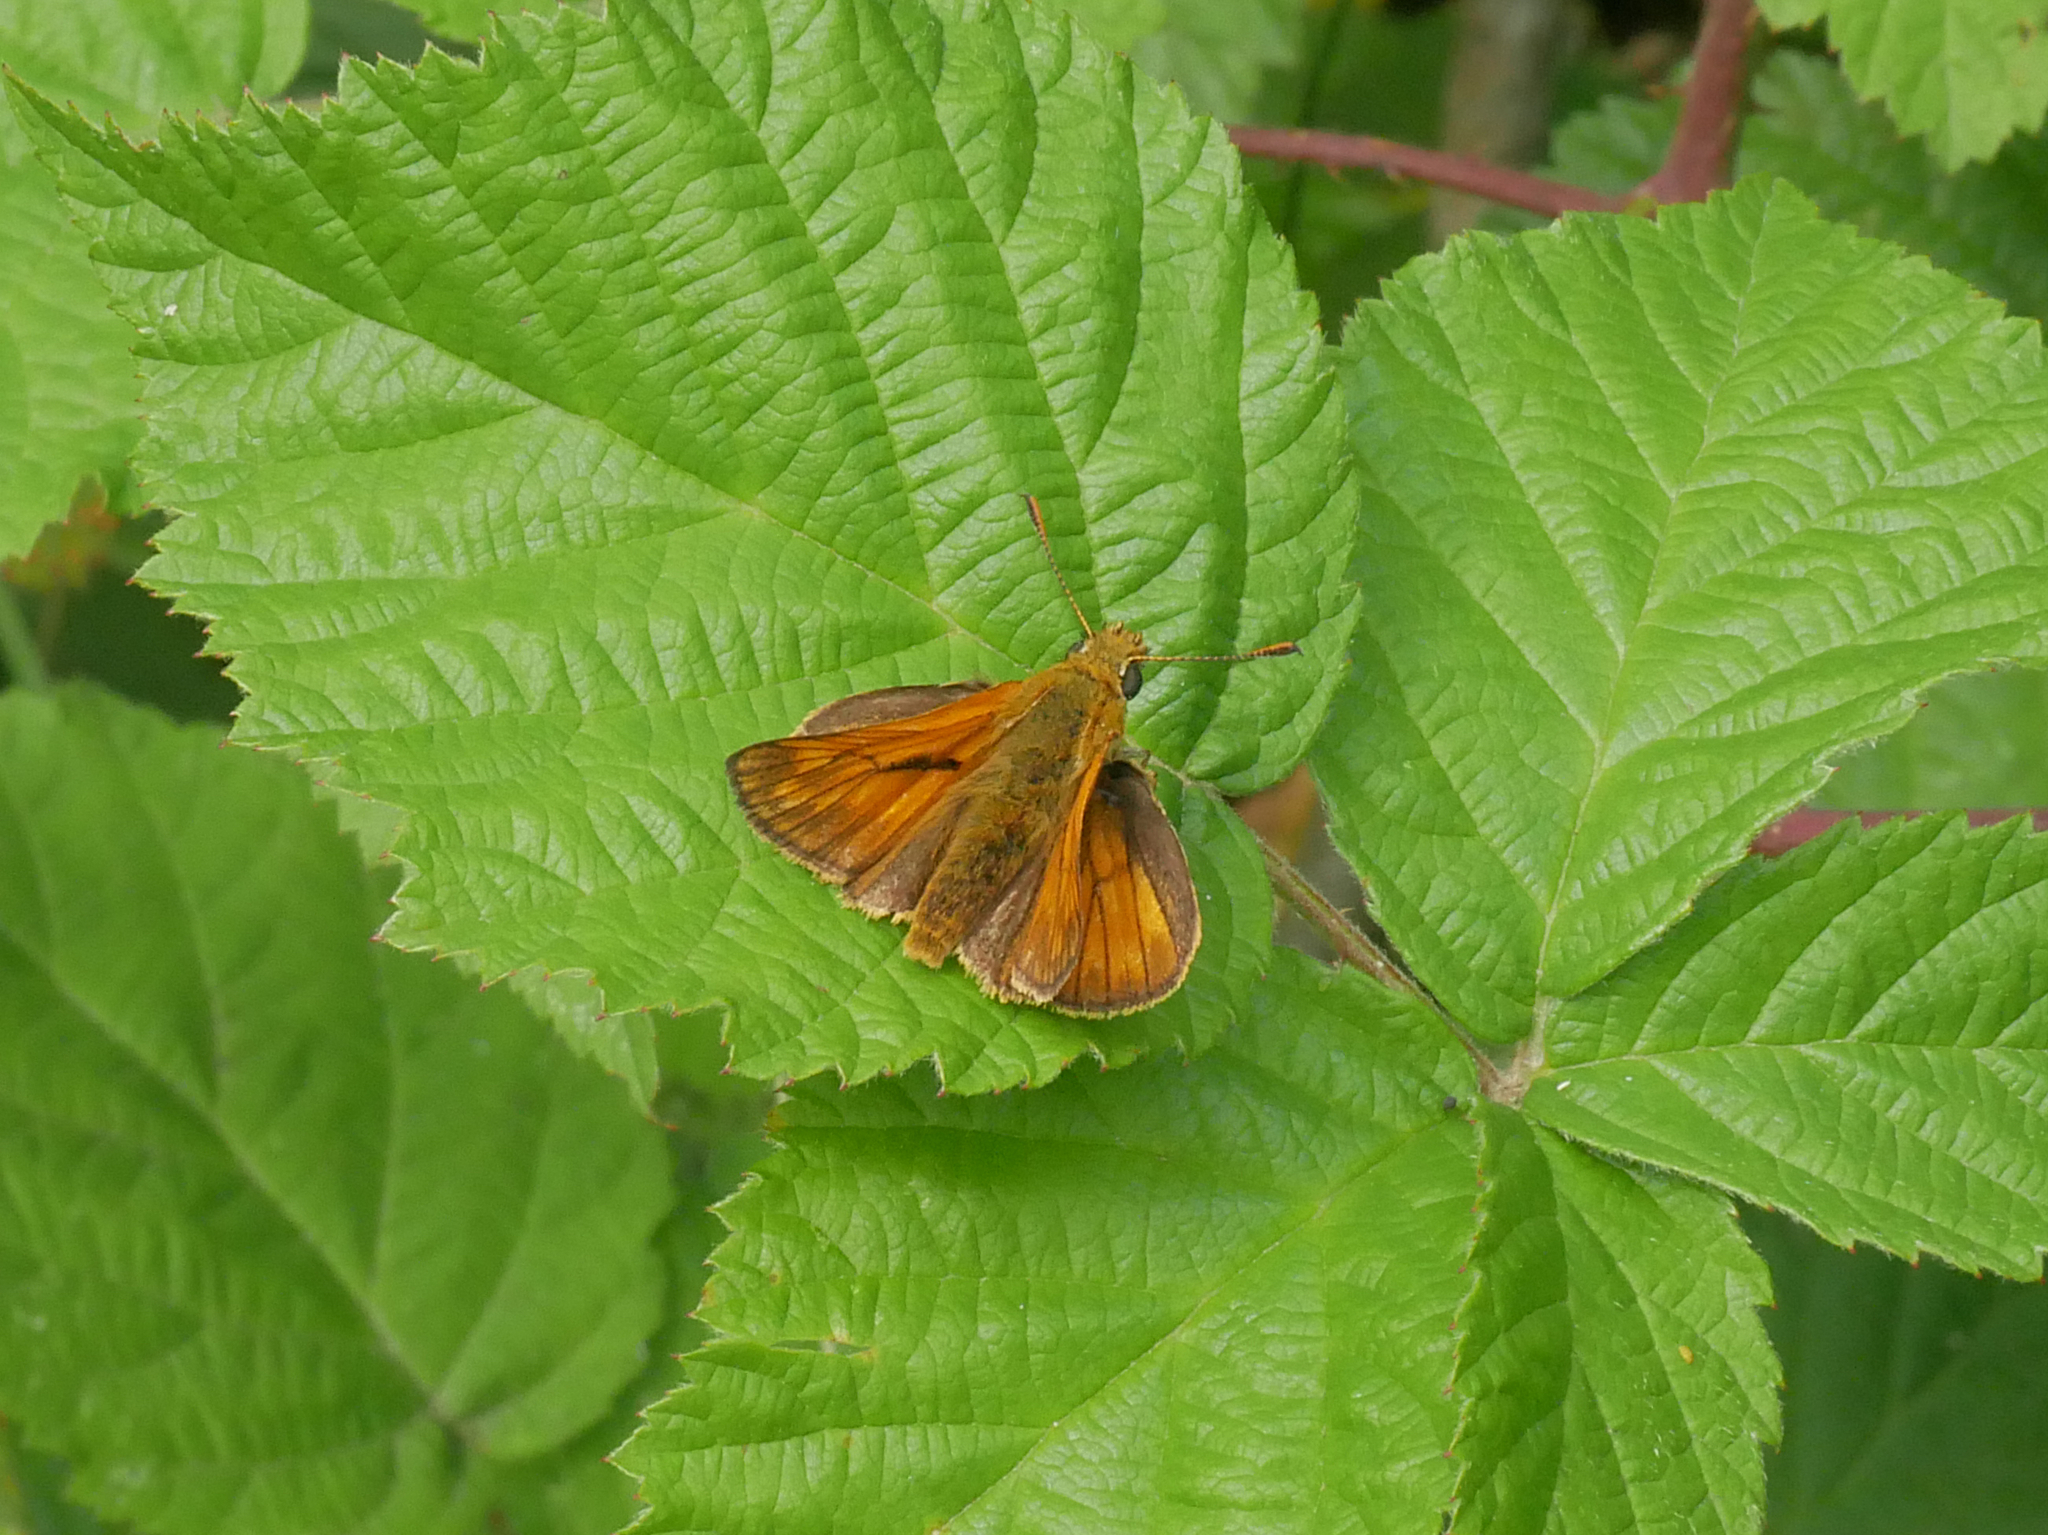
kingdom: Animalia
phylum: Arthropoda
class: Insecta
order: Lepidoptera
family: Hesperiidae
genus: Ochlodes
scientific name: Ochlodes venata
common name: Large skipper
